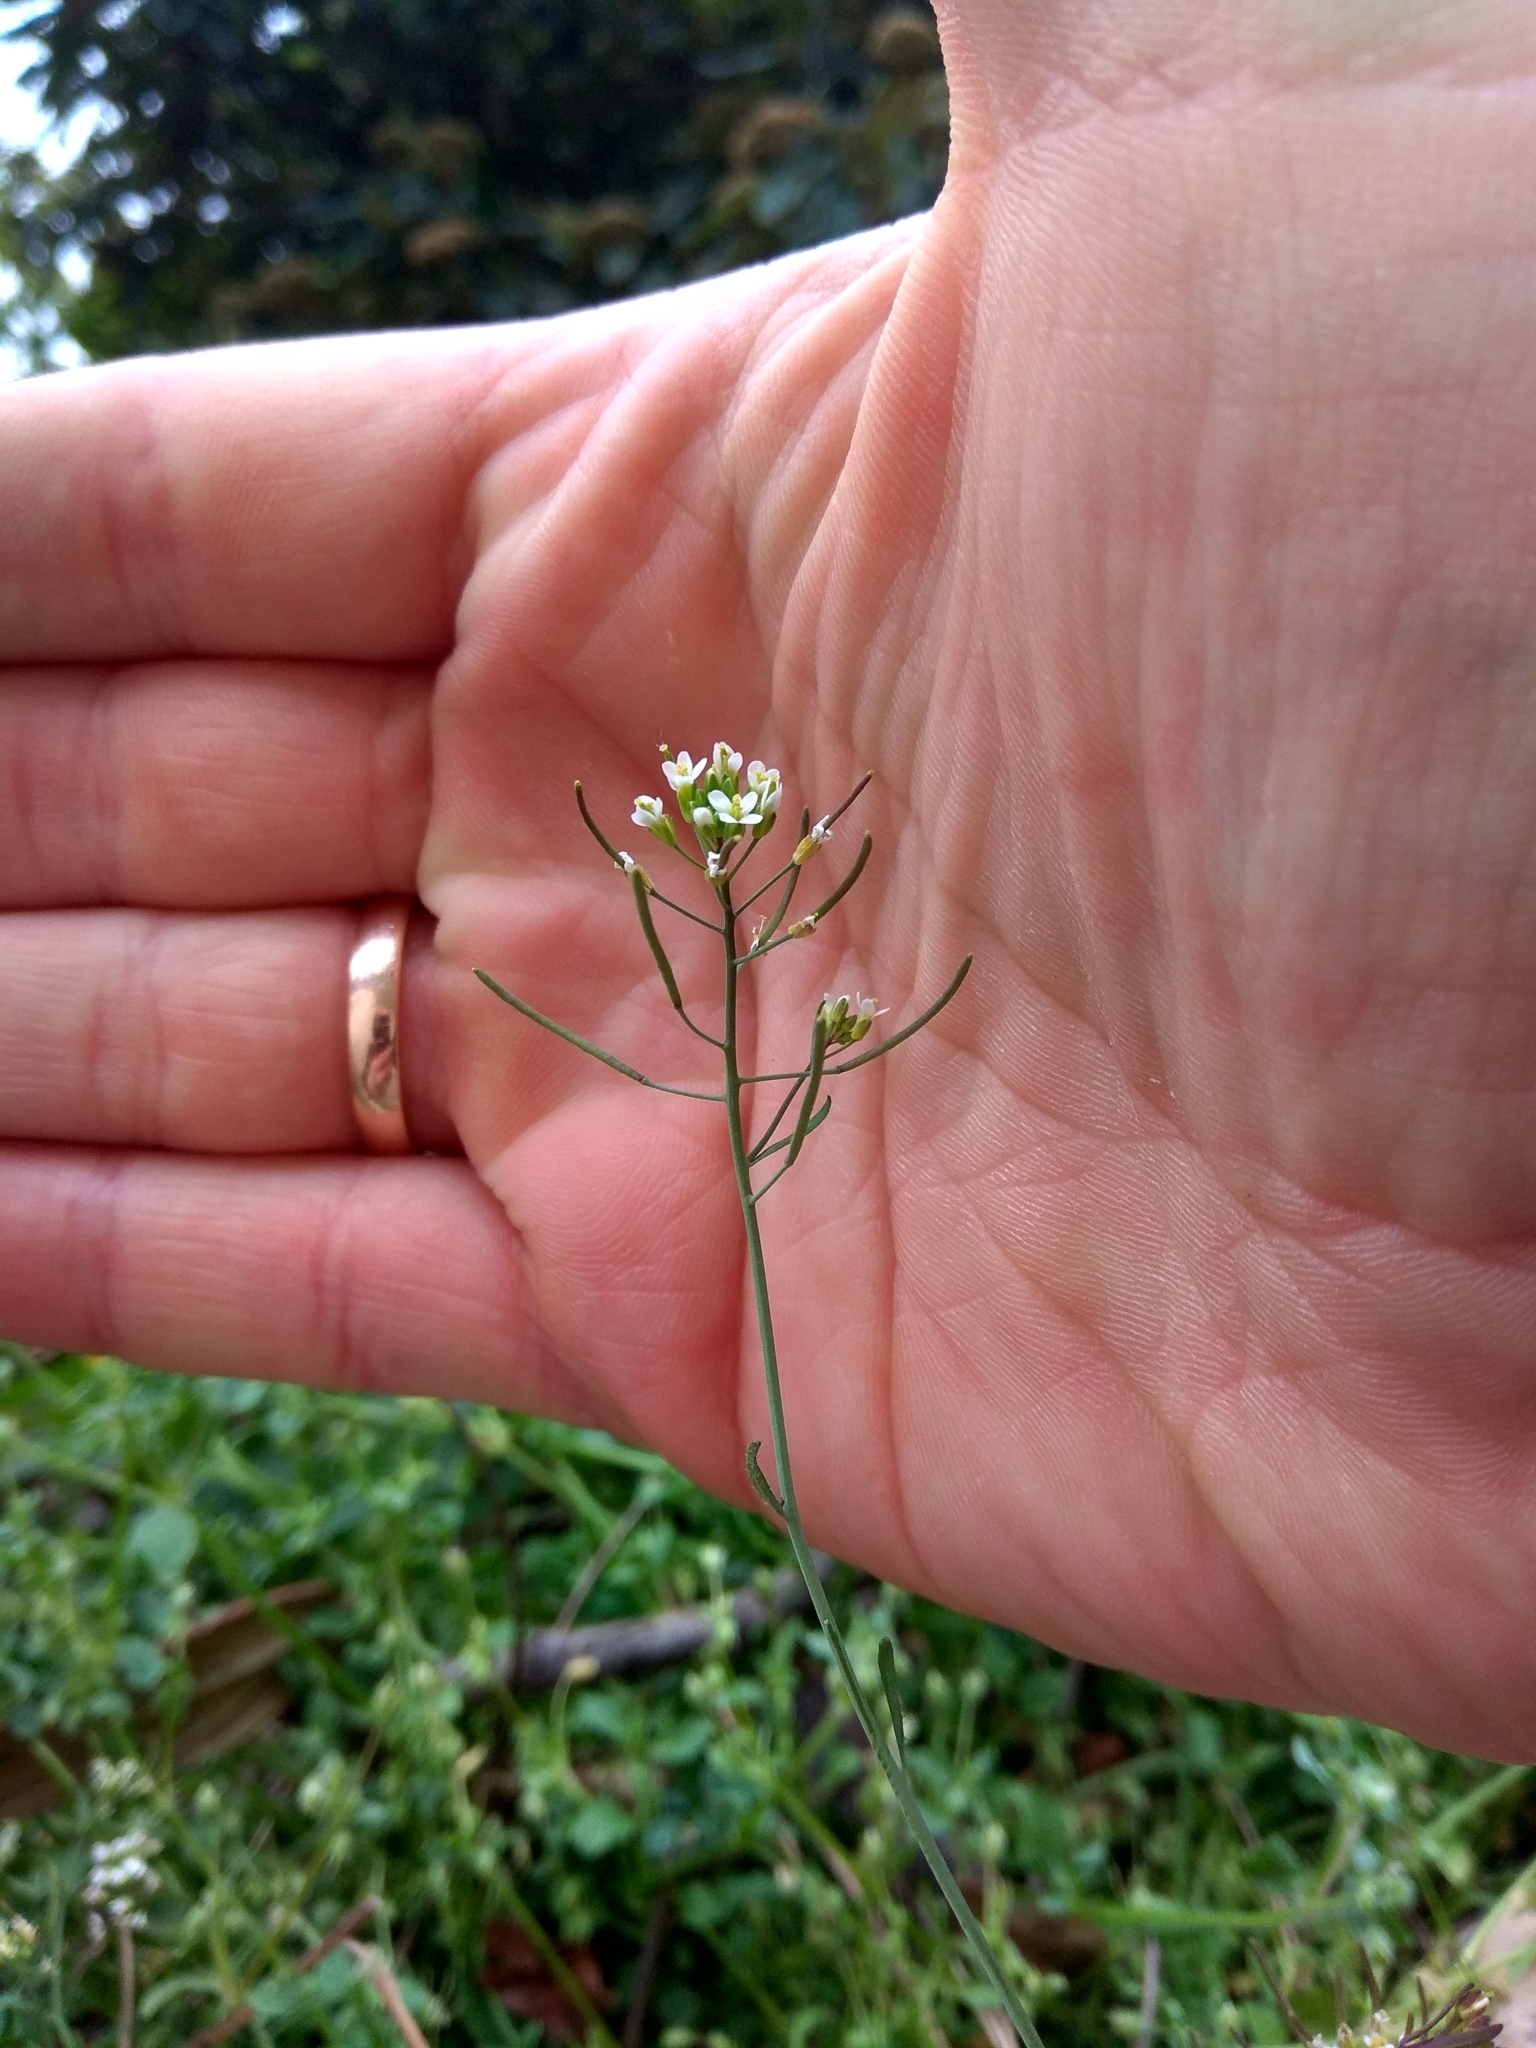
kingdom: Plantae
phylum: Tracheophyta
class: Magnoliopsida
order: Brassicales
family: Brassicaceae
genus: Arabidopsis
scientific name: Arabidopsis thaliana
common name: Thale cress
